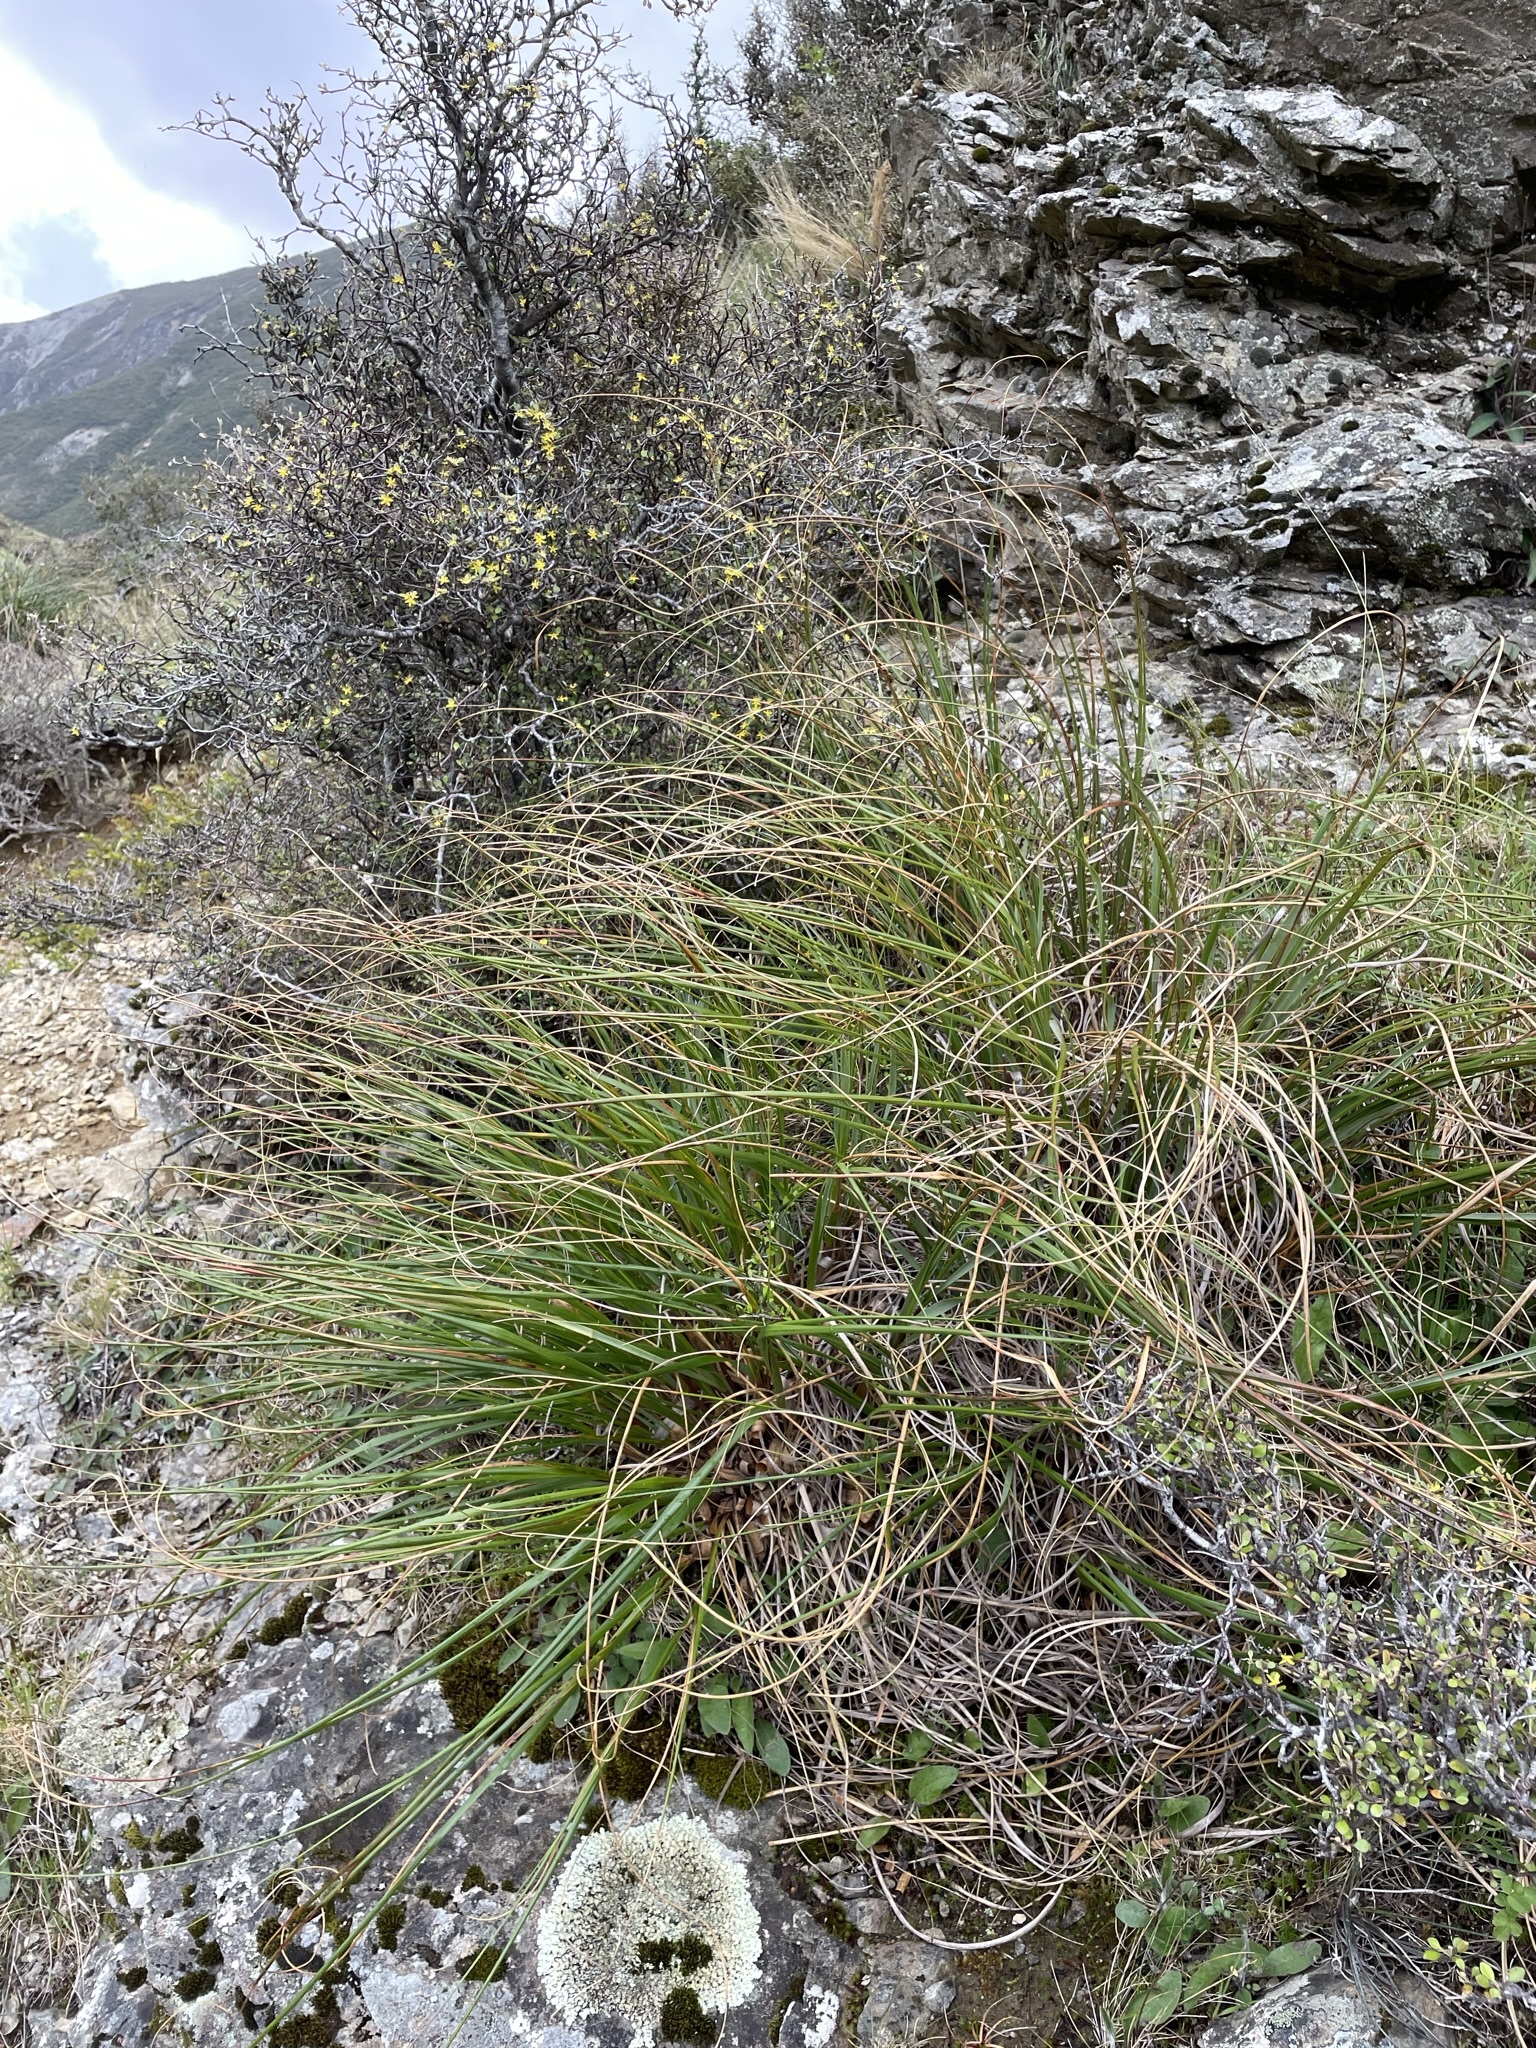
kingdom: Plantae
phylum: Tracheophyta
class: Liliopsida
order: Poales
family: Poaceae
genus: Chionochloa
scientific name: Chionochloa flavescens
